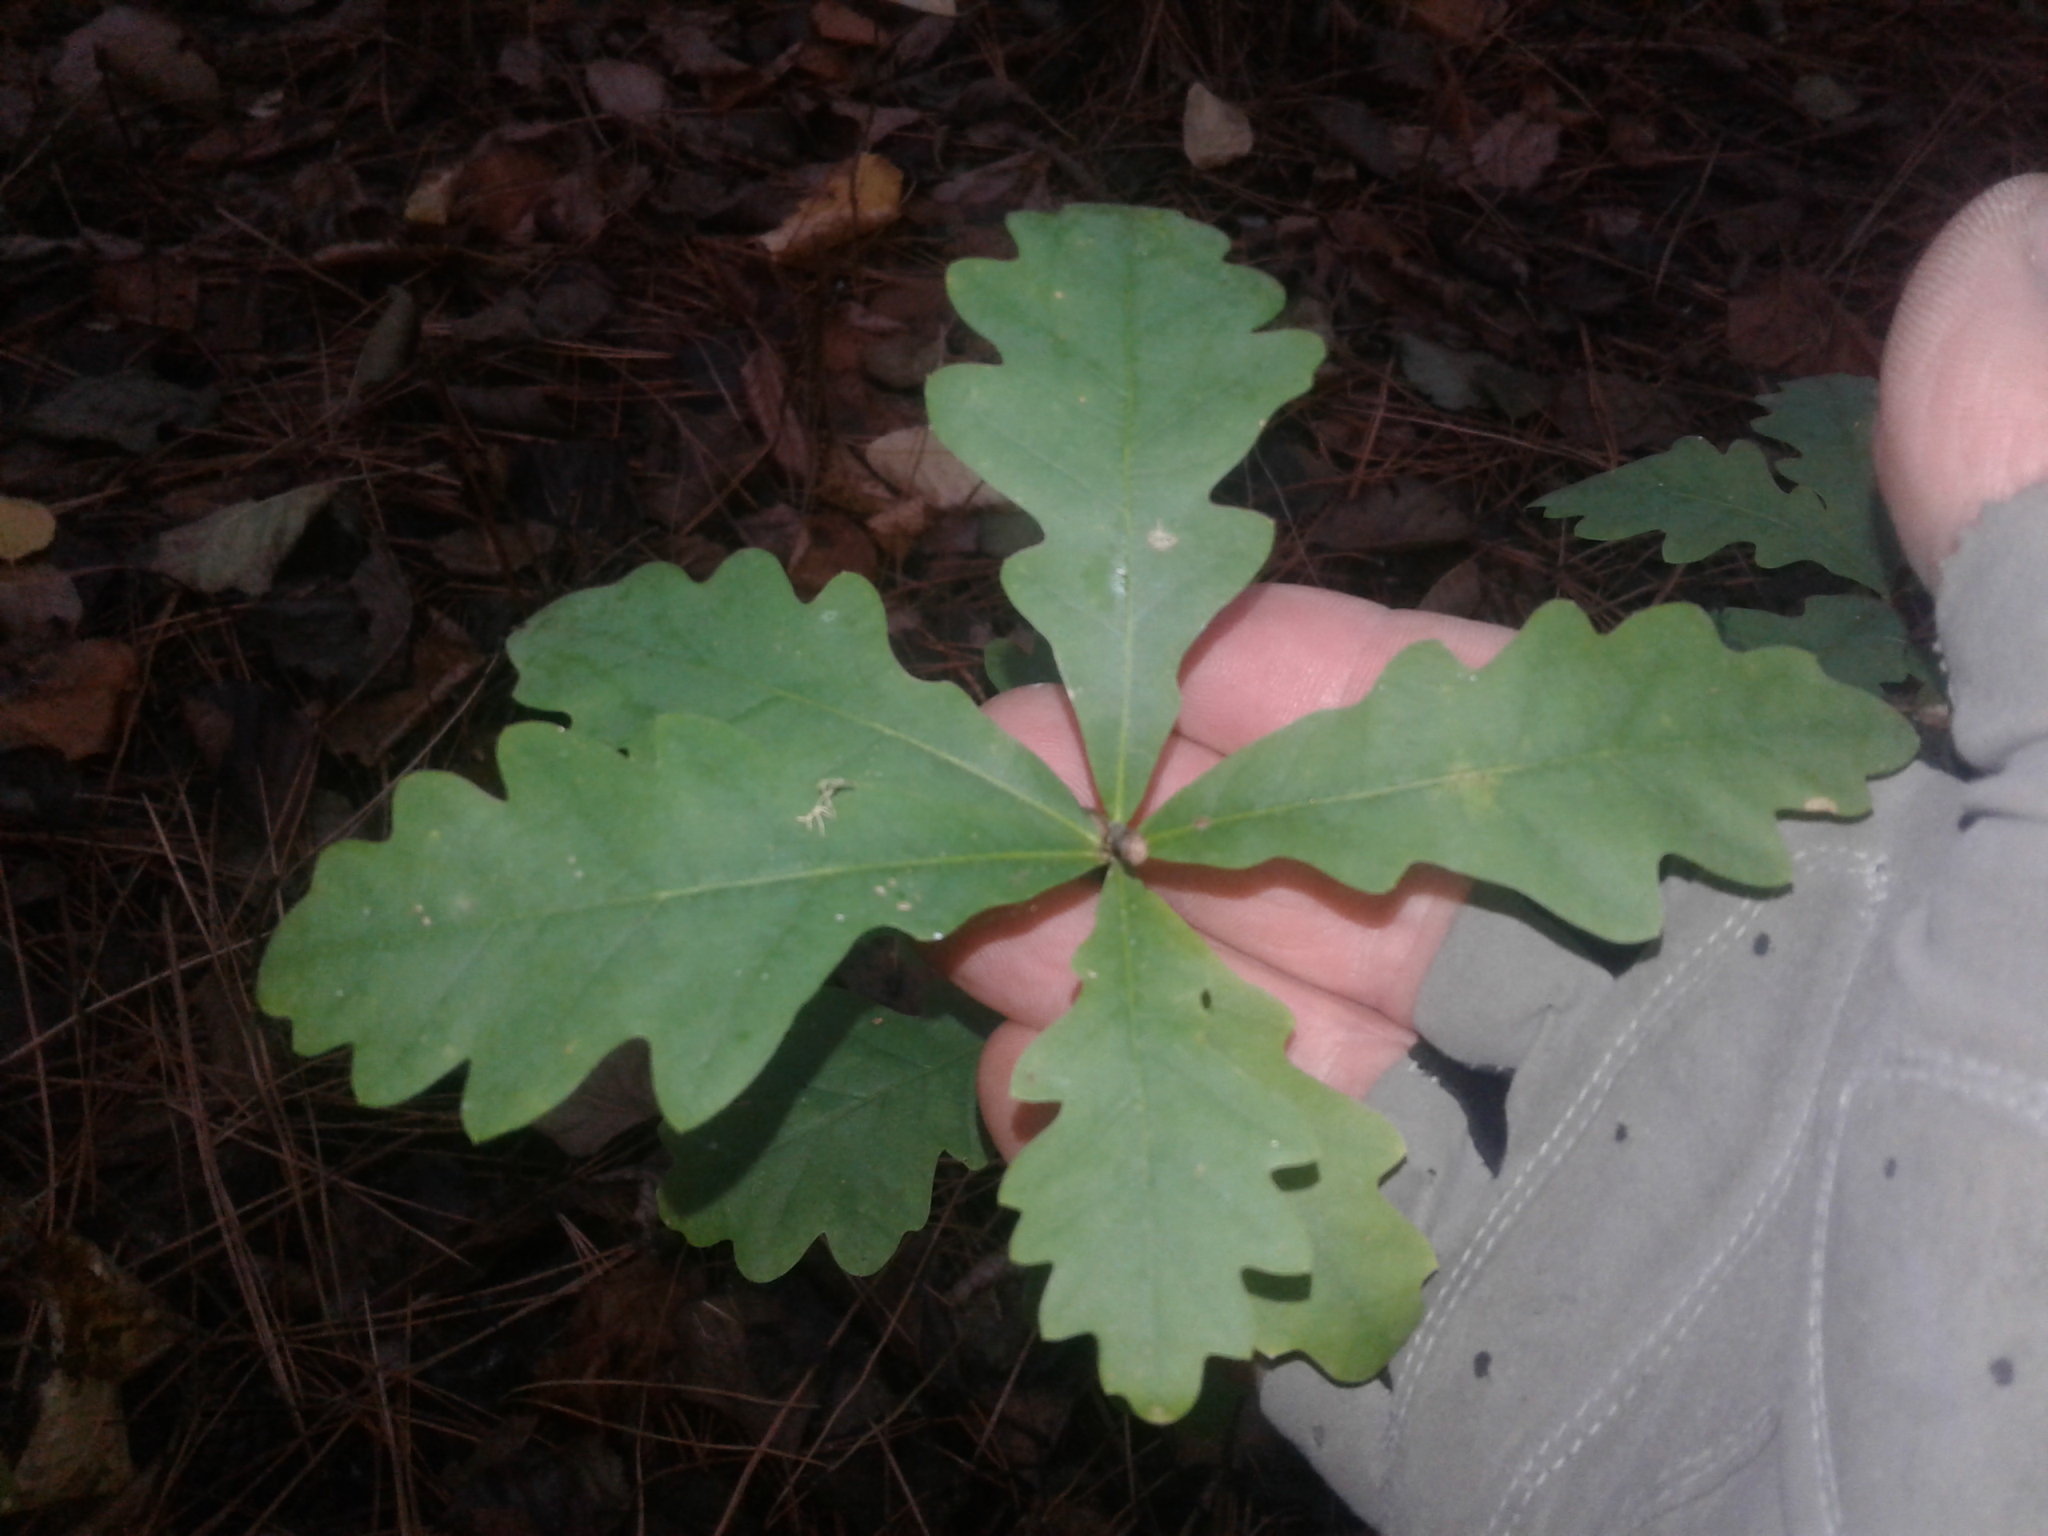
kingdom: Plantae
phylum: Tracheophyta
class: Magnoliopsida
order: Fagales
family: Fagaceae
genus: Quercus
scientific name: Quercus robur
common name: Pedunculate oak
